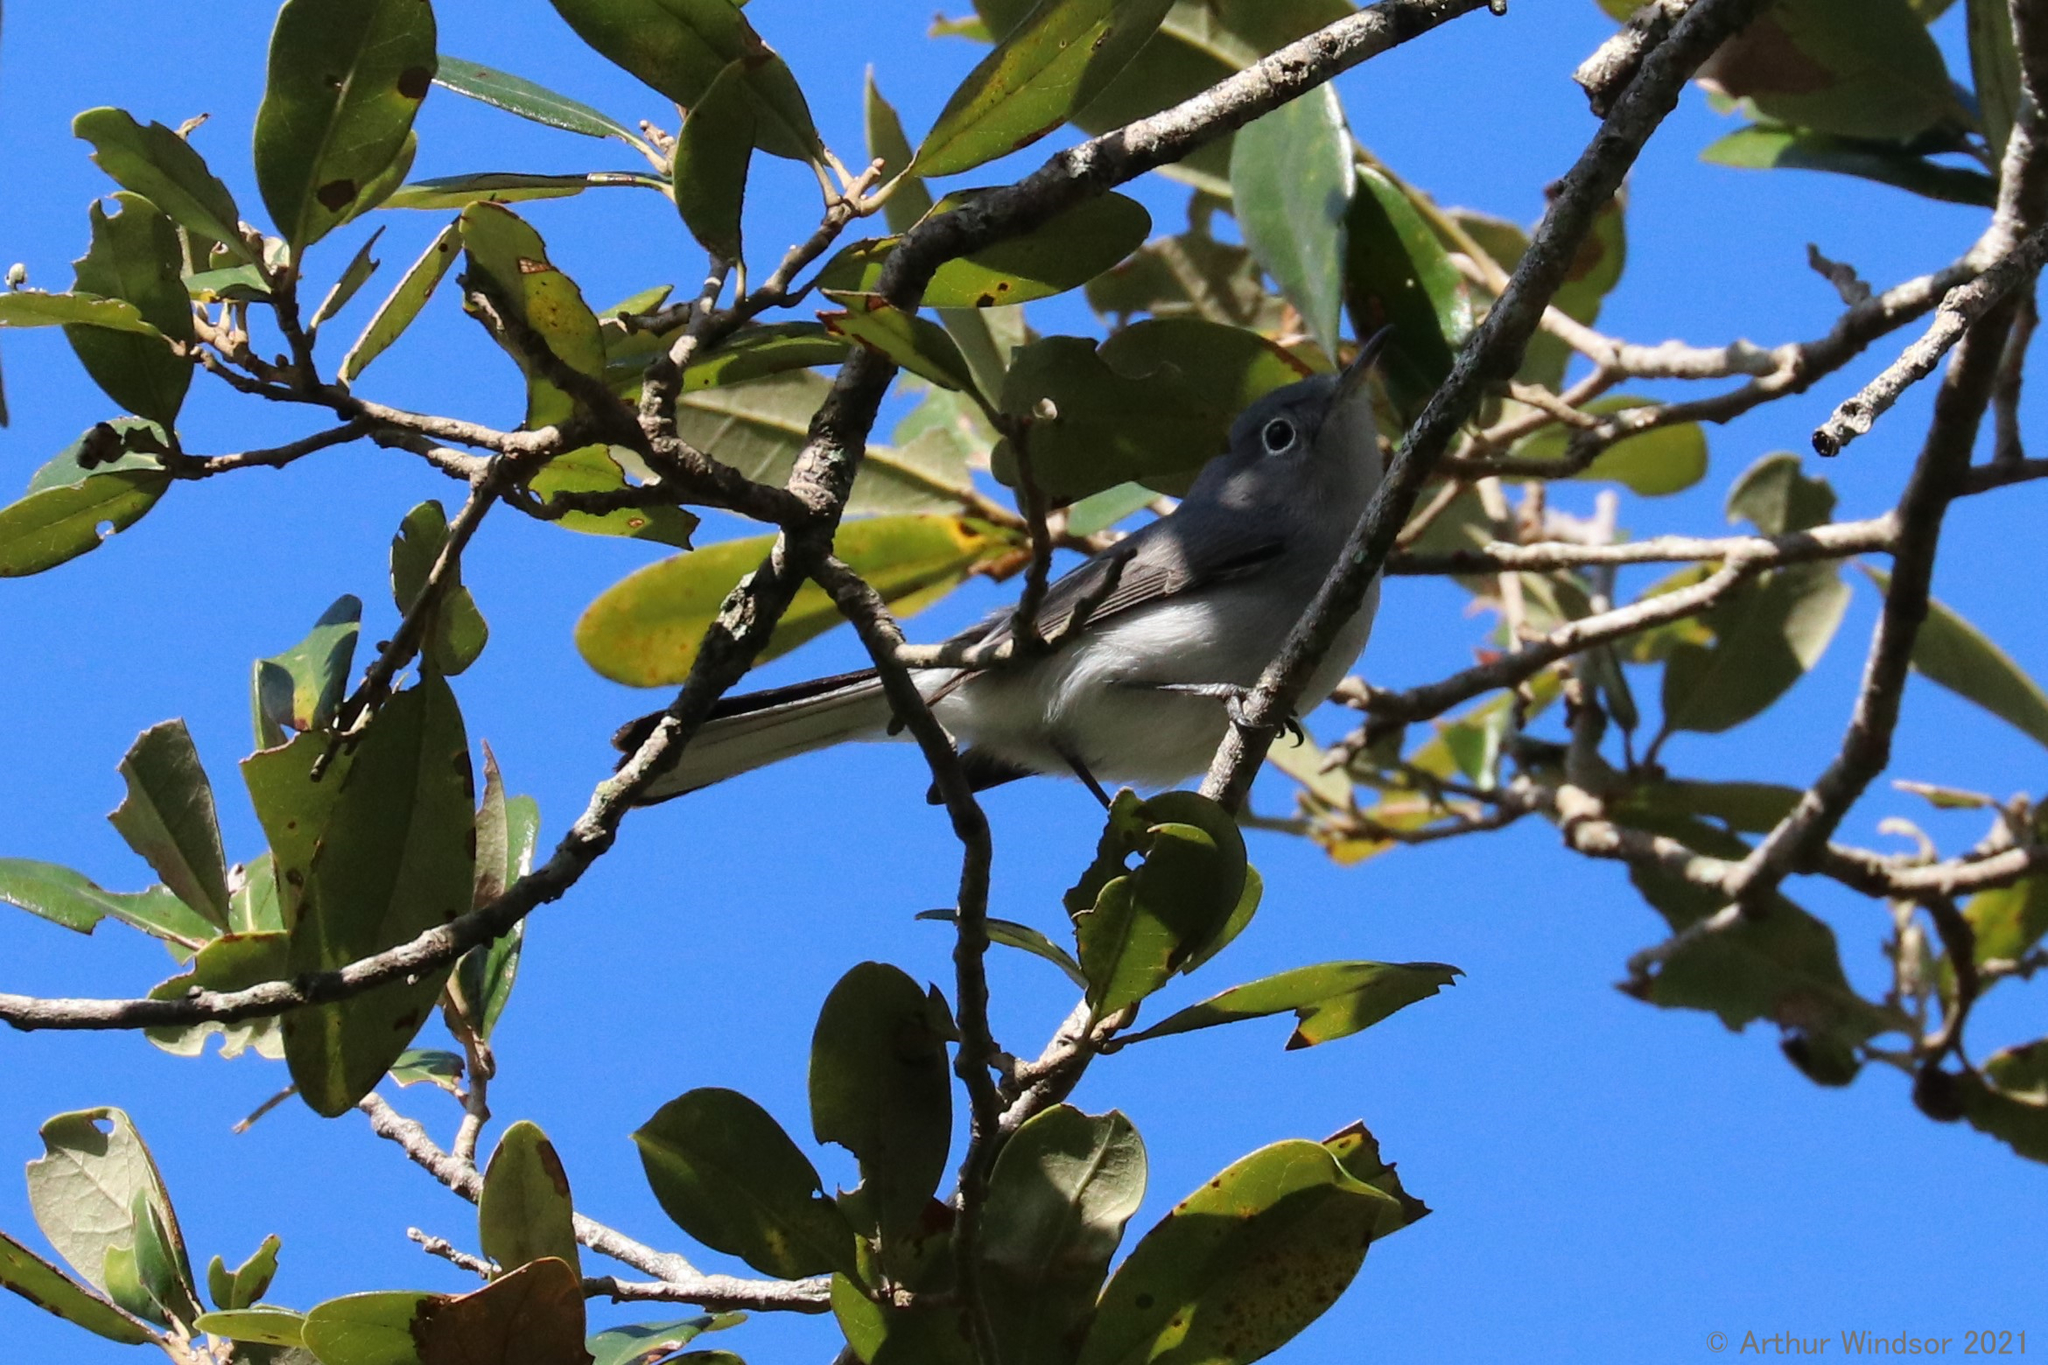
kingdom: Animalia
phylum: Chordata
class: Aves
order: Passeriformes
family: Polioptilidae
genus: Polioptila
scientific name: Polioptila caerulea
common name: Blue-gray gnatcatcher
